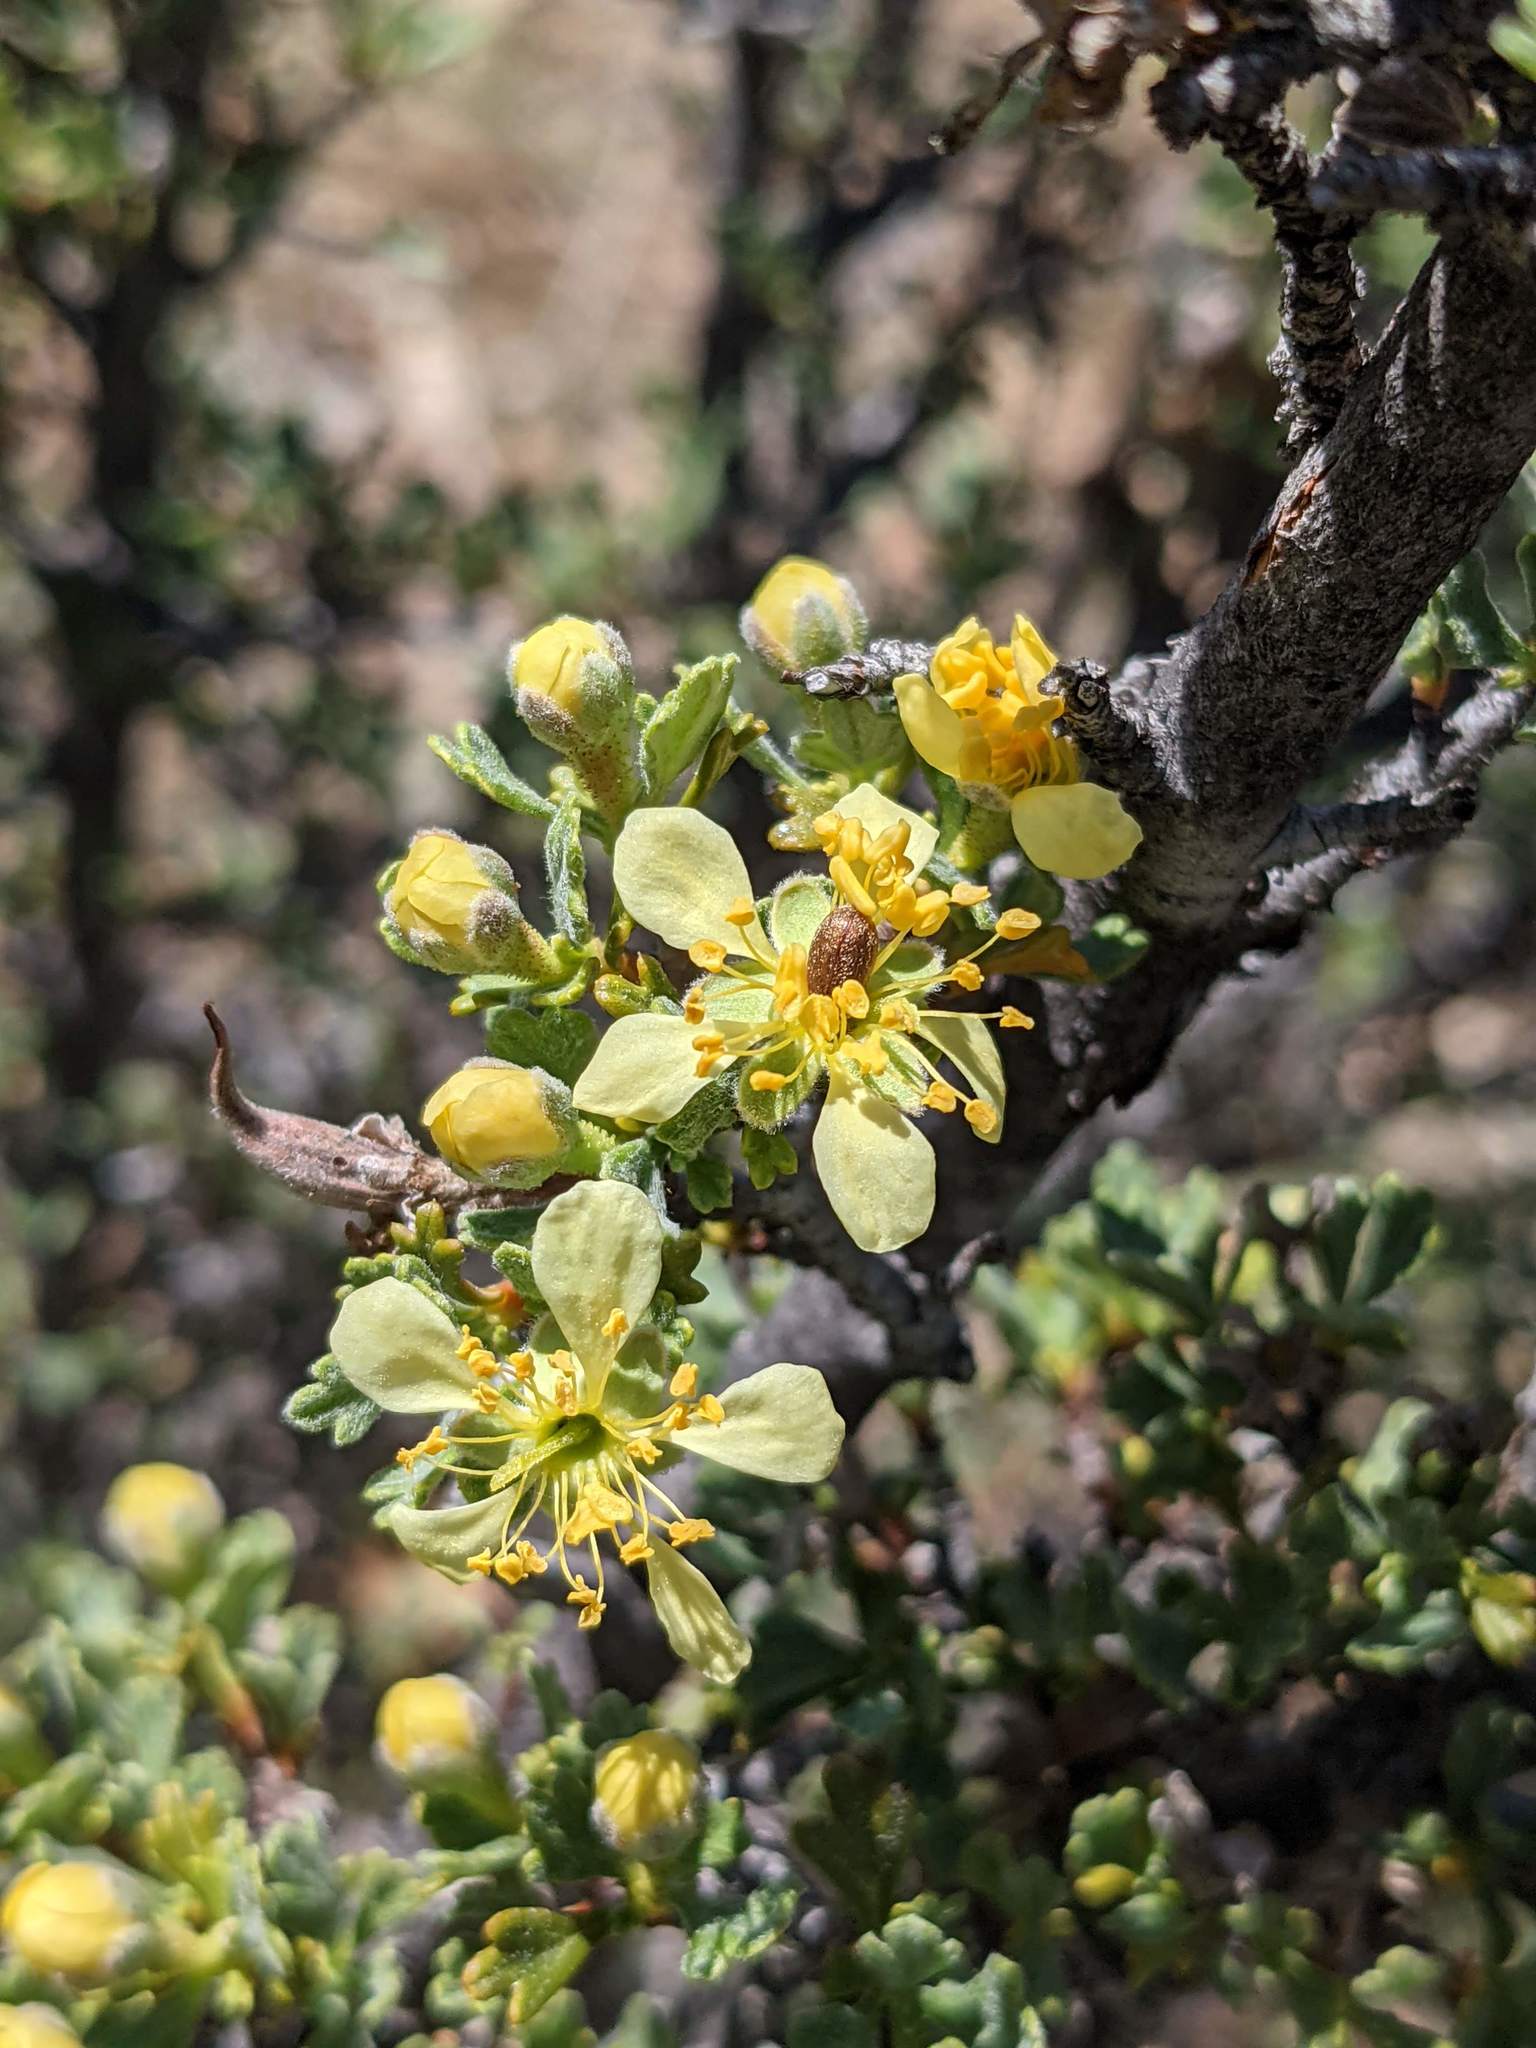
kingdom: Plantae
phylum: Tracheophyta
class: Magnoliopsida
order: Rosales
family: Rosaceae
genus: Purshia
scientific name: Purshia tridentata
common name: Antelope bitterbrush
